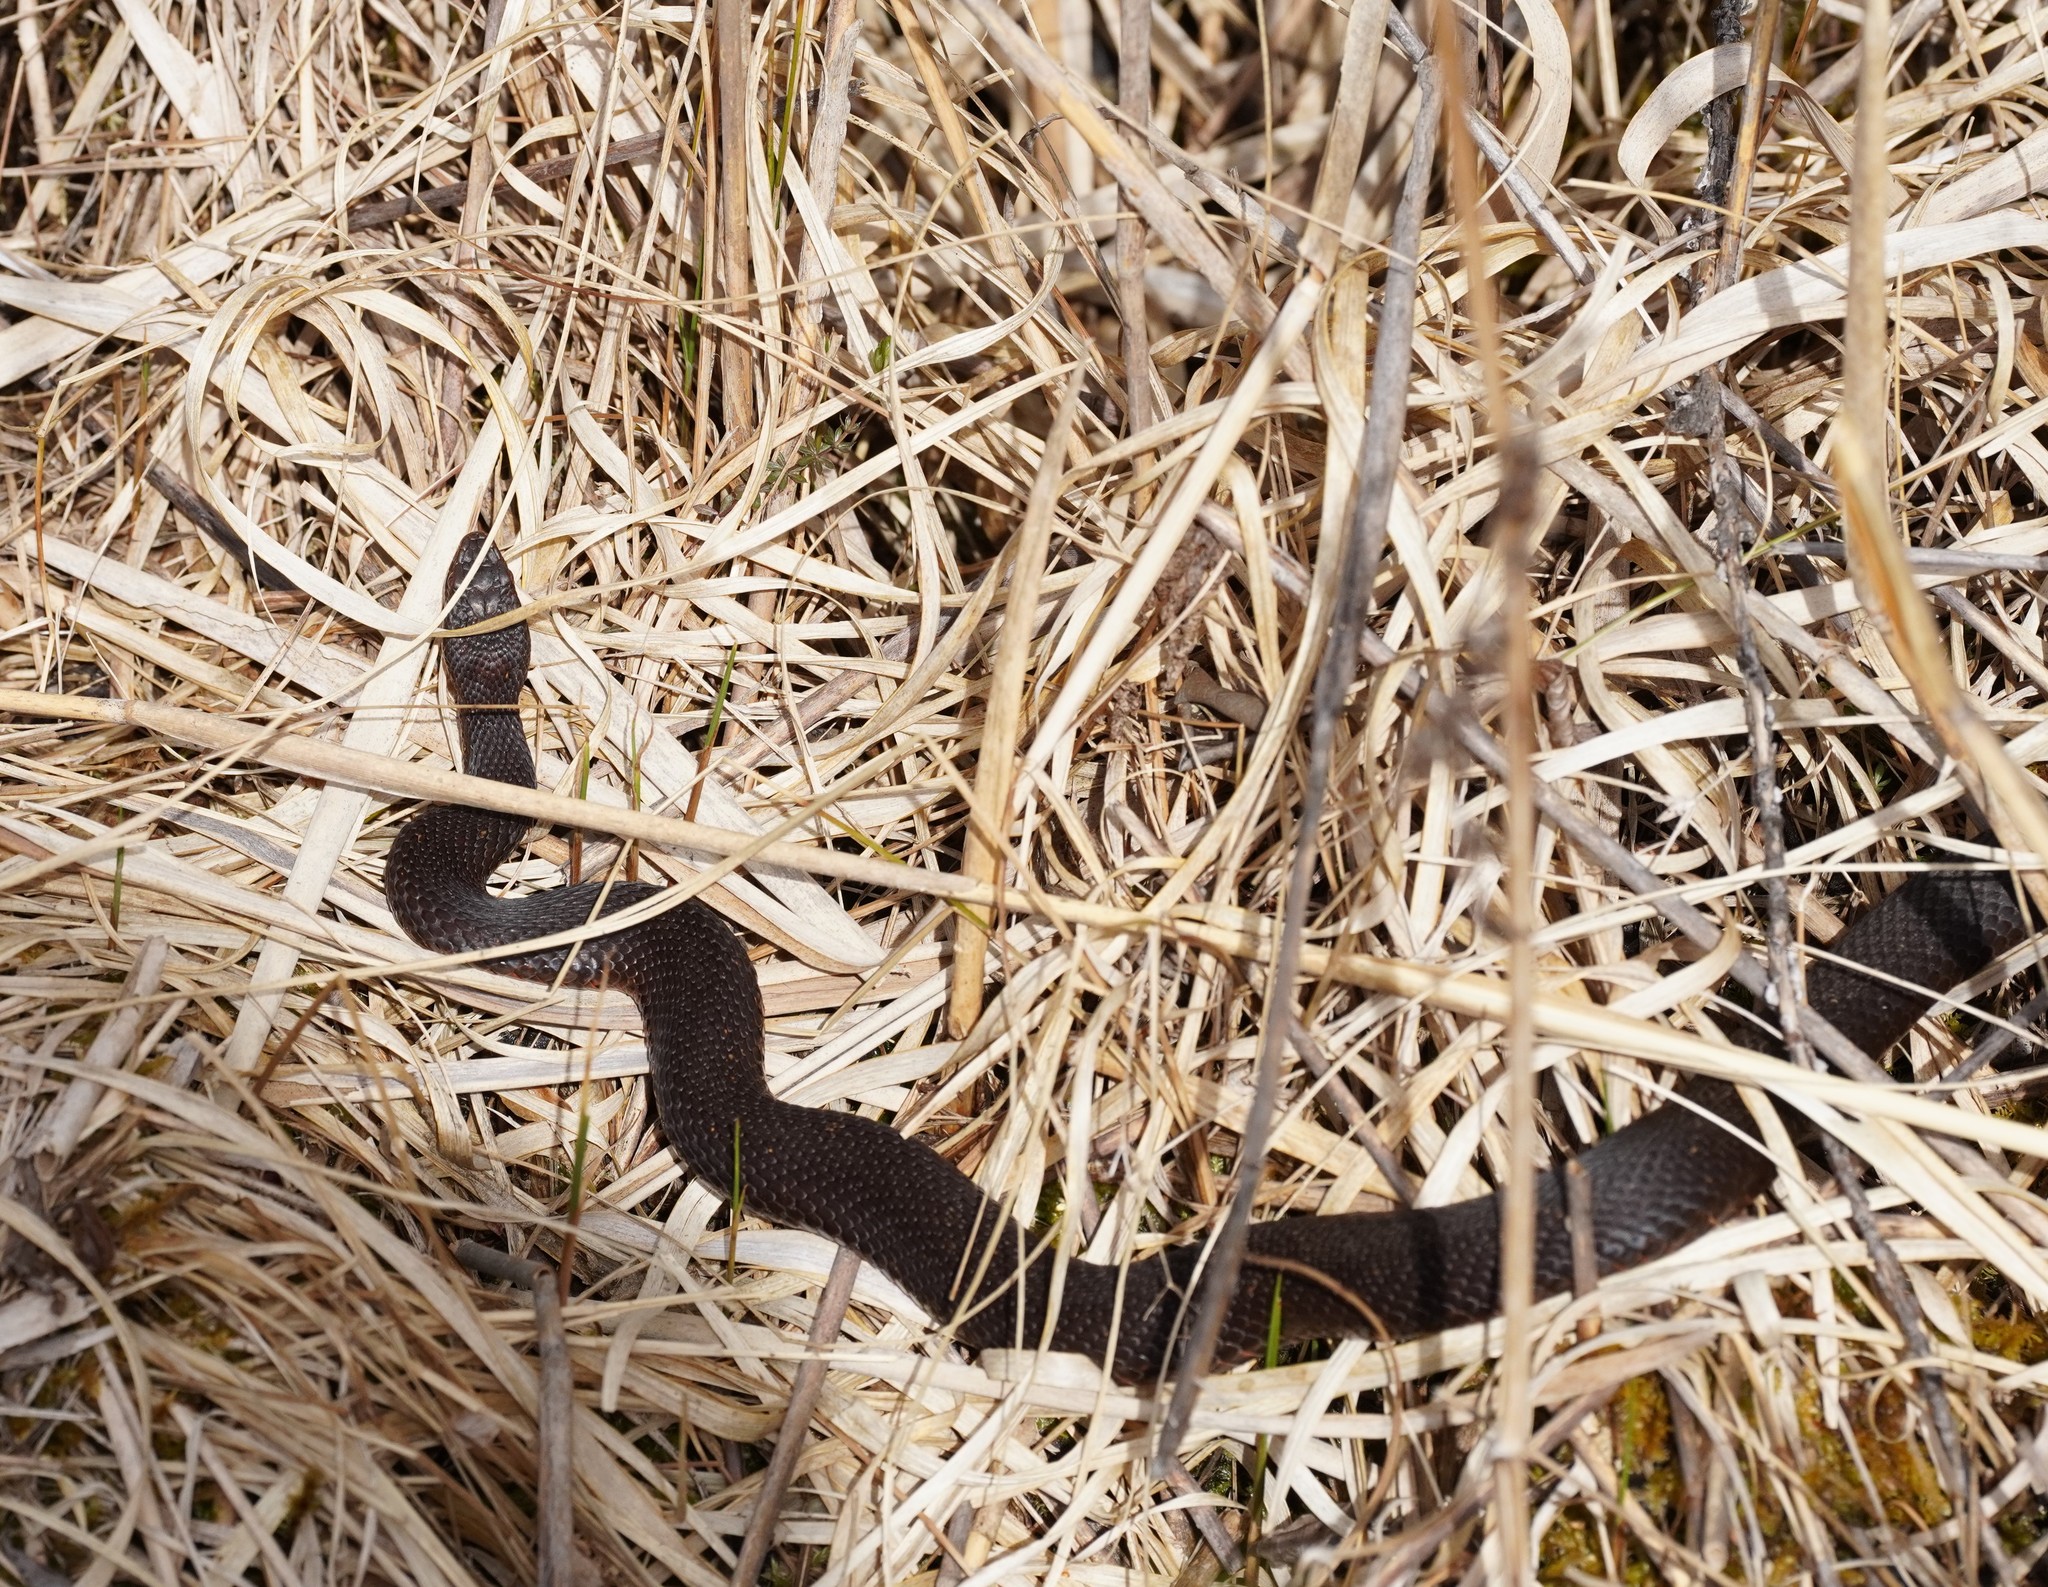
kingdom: Animalia
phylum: Chordata
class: Squamata
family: Viperidae
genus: Vipera
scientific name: Vipera berus
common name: Adder
